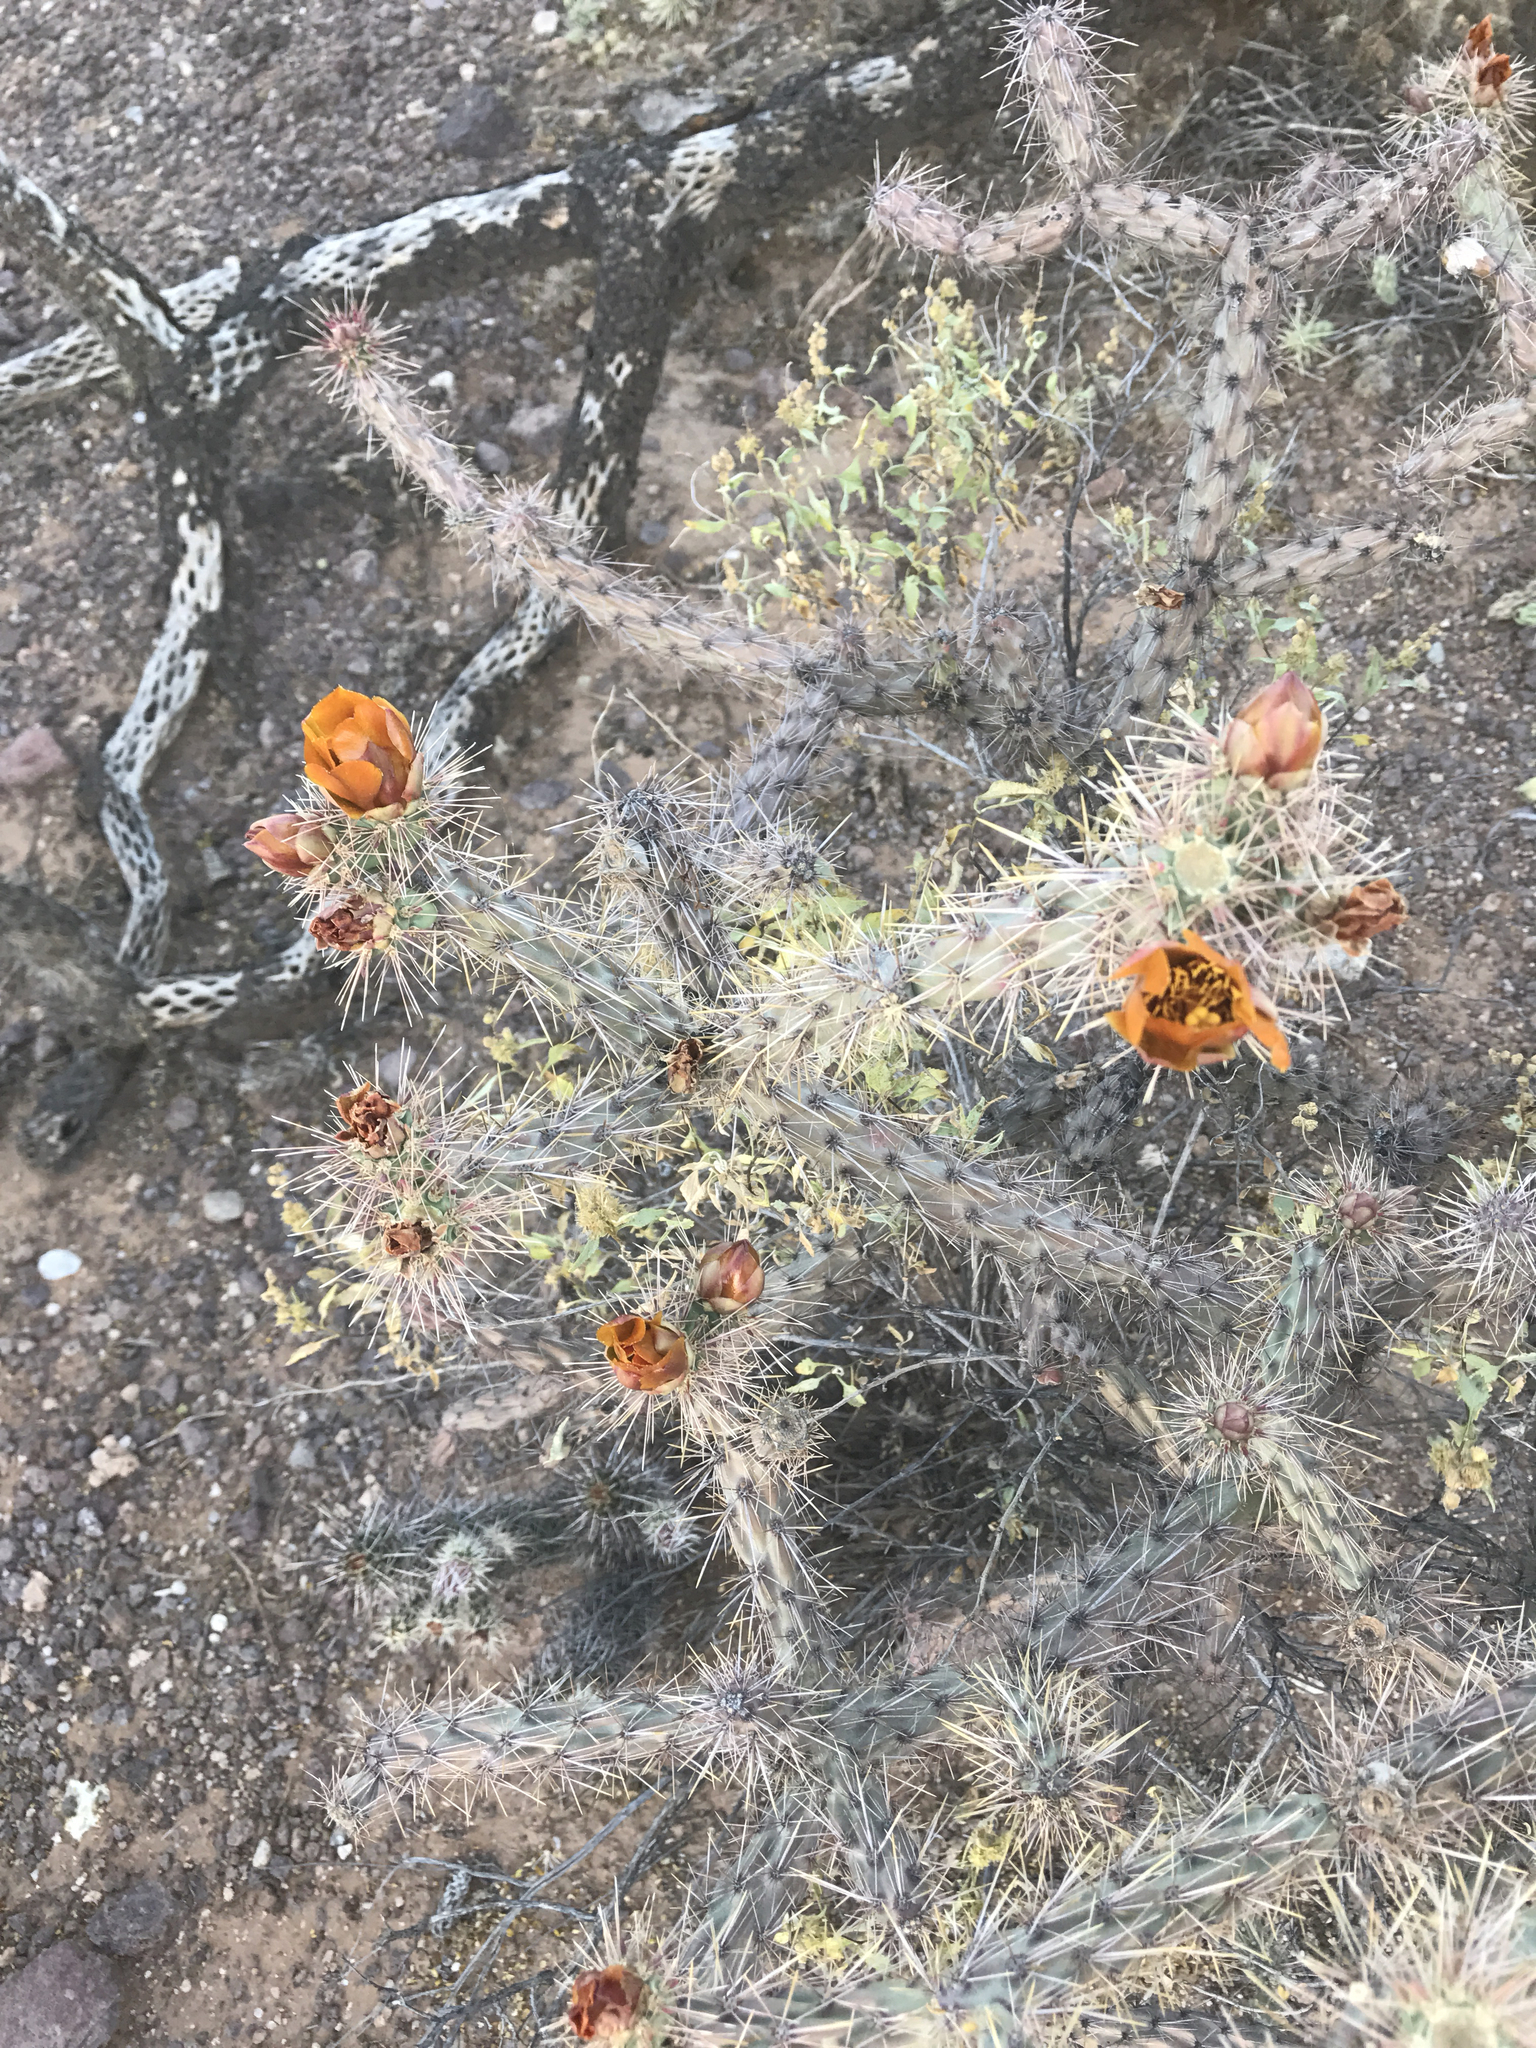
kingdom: Plantae
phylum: Tracheophyta
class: Magnoliopsida
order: Caryophyllales
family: Cactaceae
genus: Cylindropuntia
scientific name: Cylindropuntia thurberi
